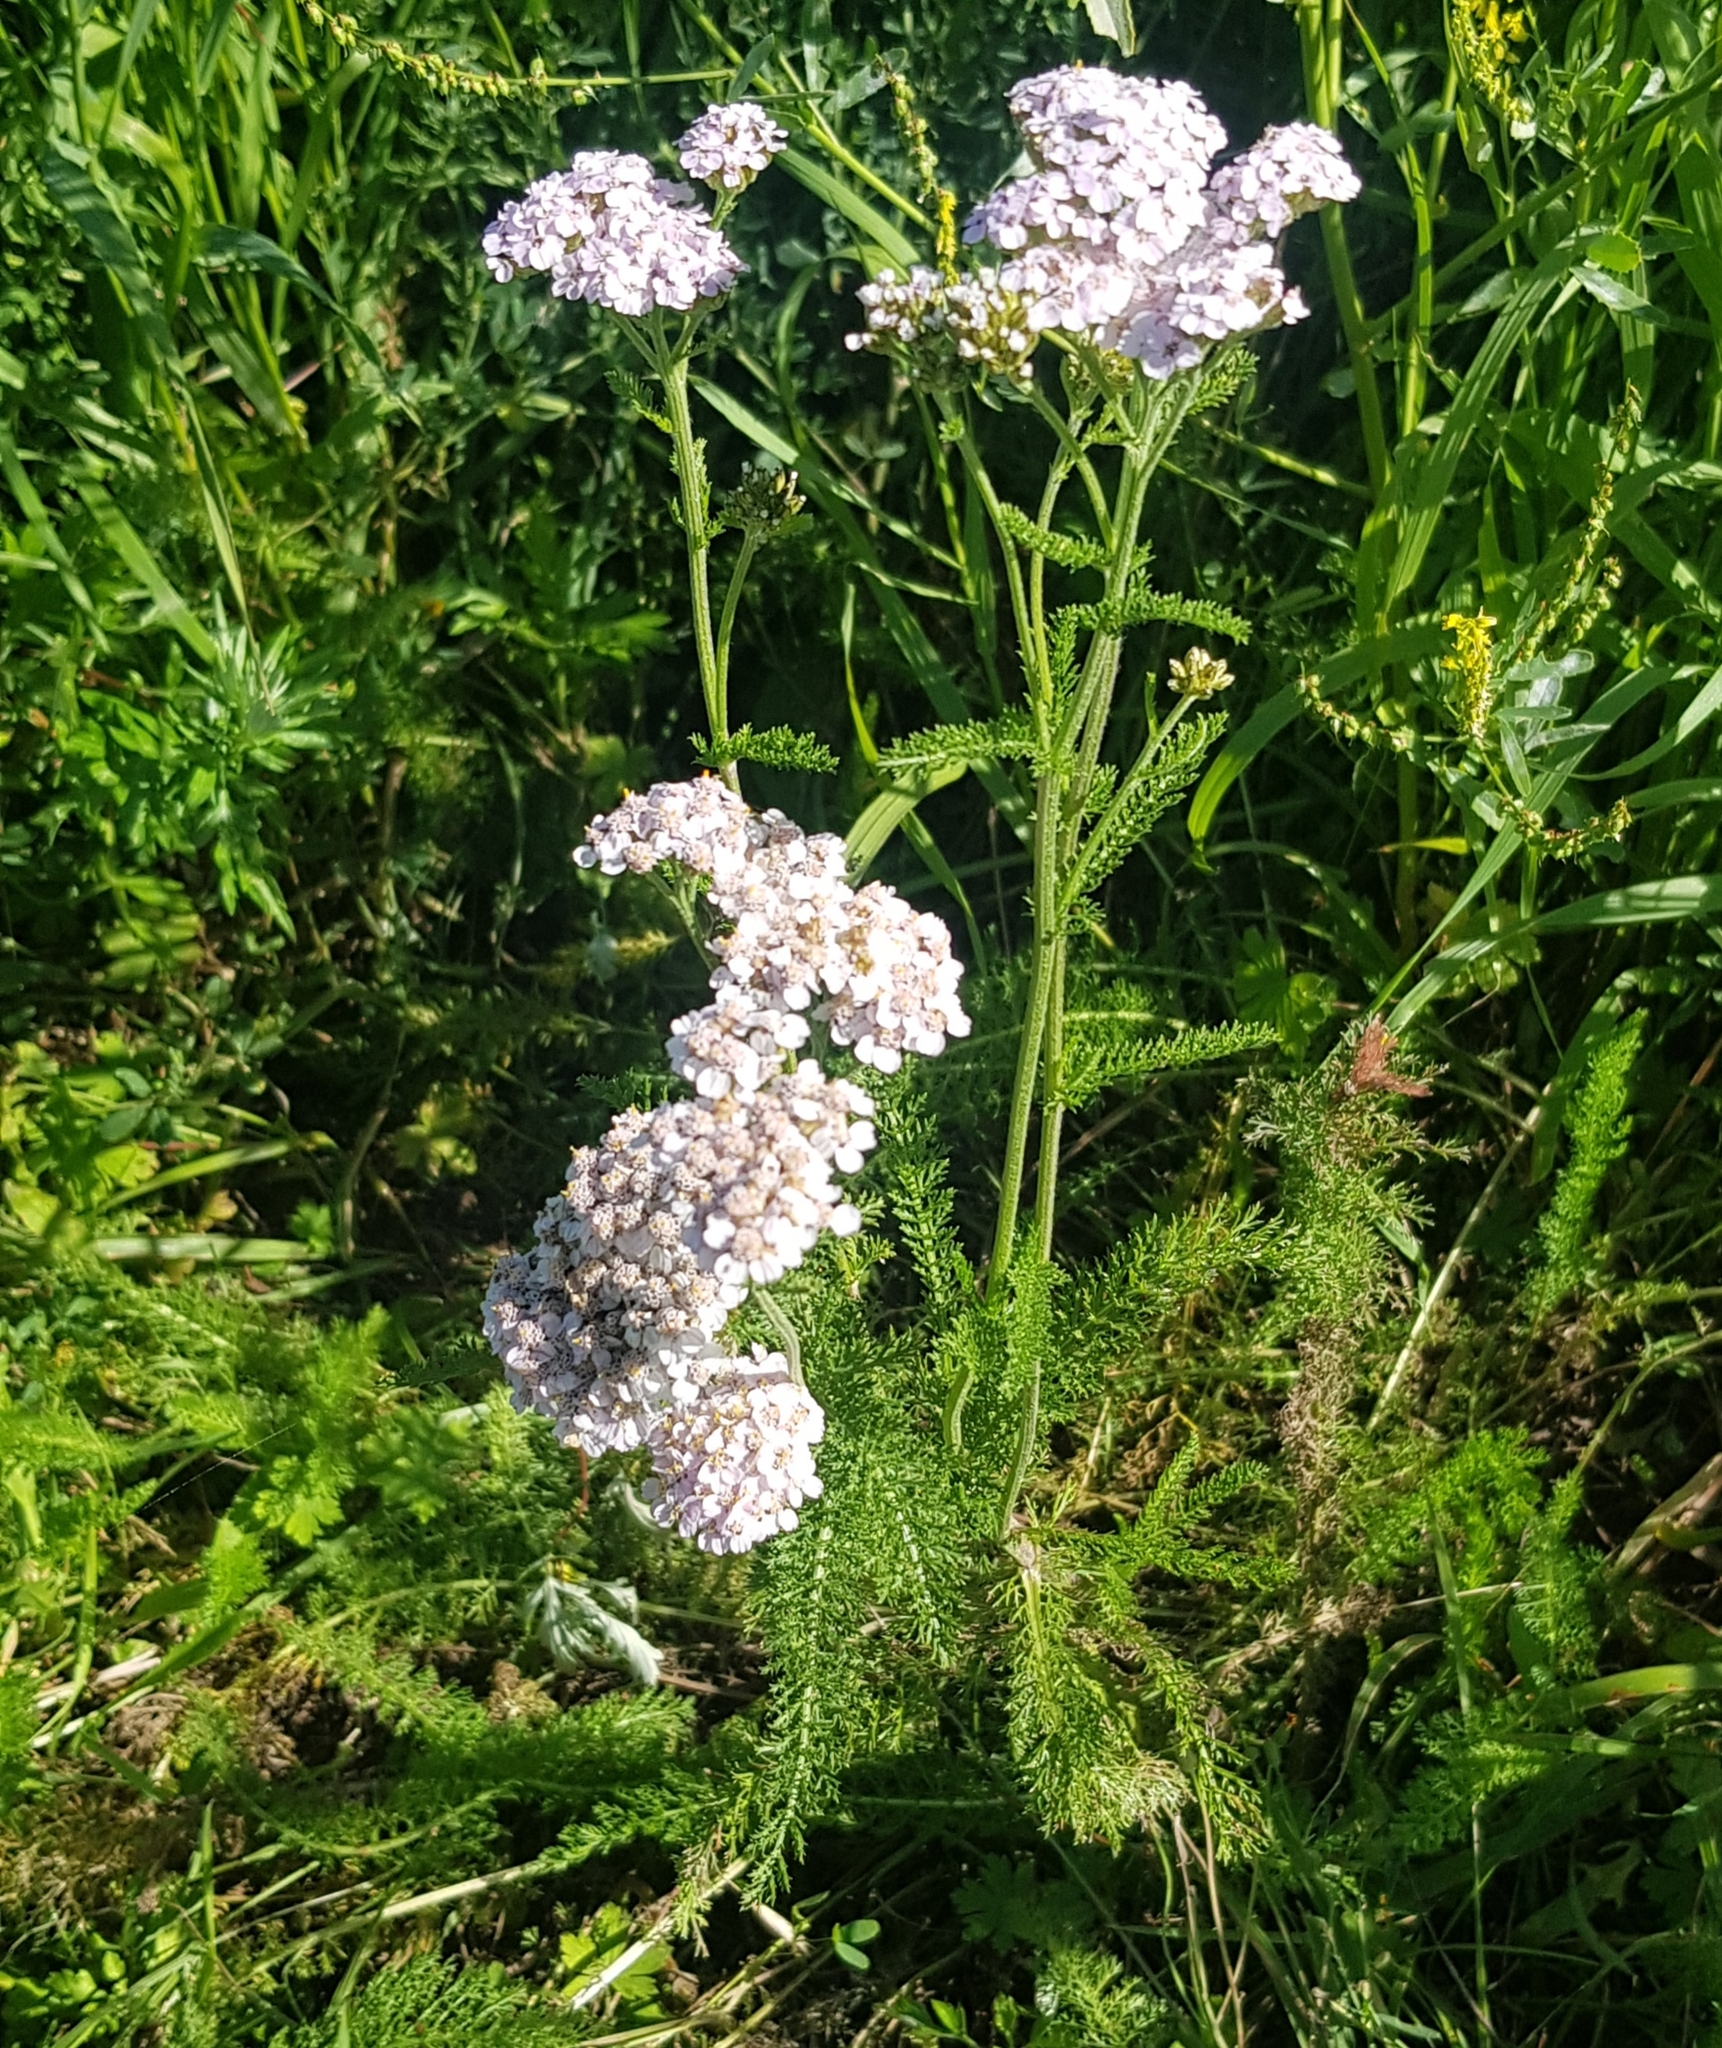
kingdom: Plantae
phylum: Tracheophyta
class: Magnoliopsida
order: Asterales
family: Asteraceae
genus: Achillea
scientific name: Achillea asiatica
